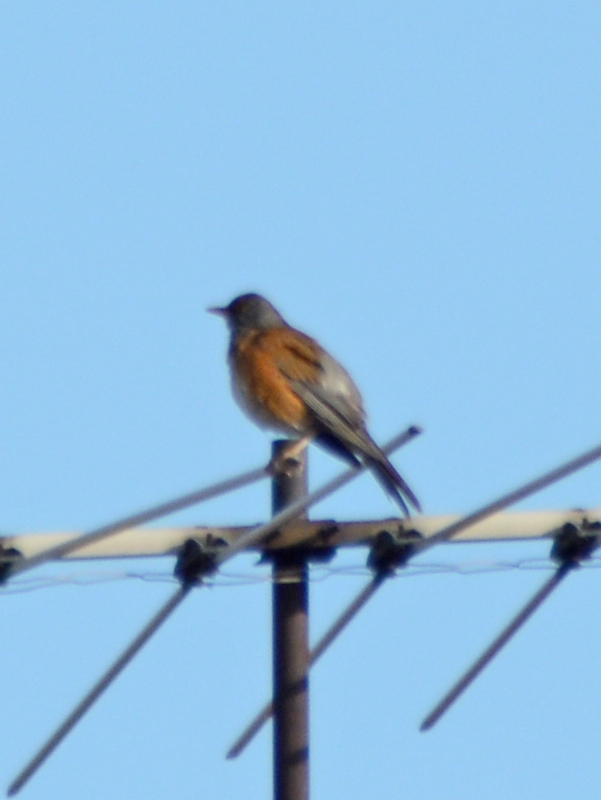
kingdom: Animalia
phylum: Chordata
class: Aves
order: Passeriformes
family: Turdidae
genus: Turdus
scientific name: Turdus rufopalliatus
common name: Rufous-backed robin
